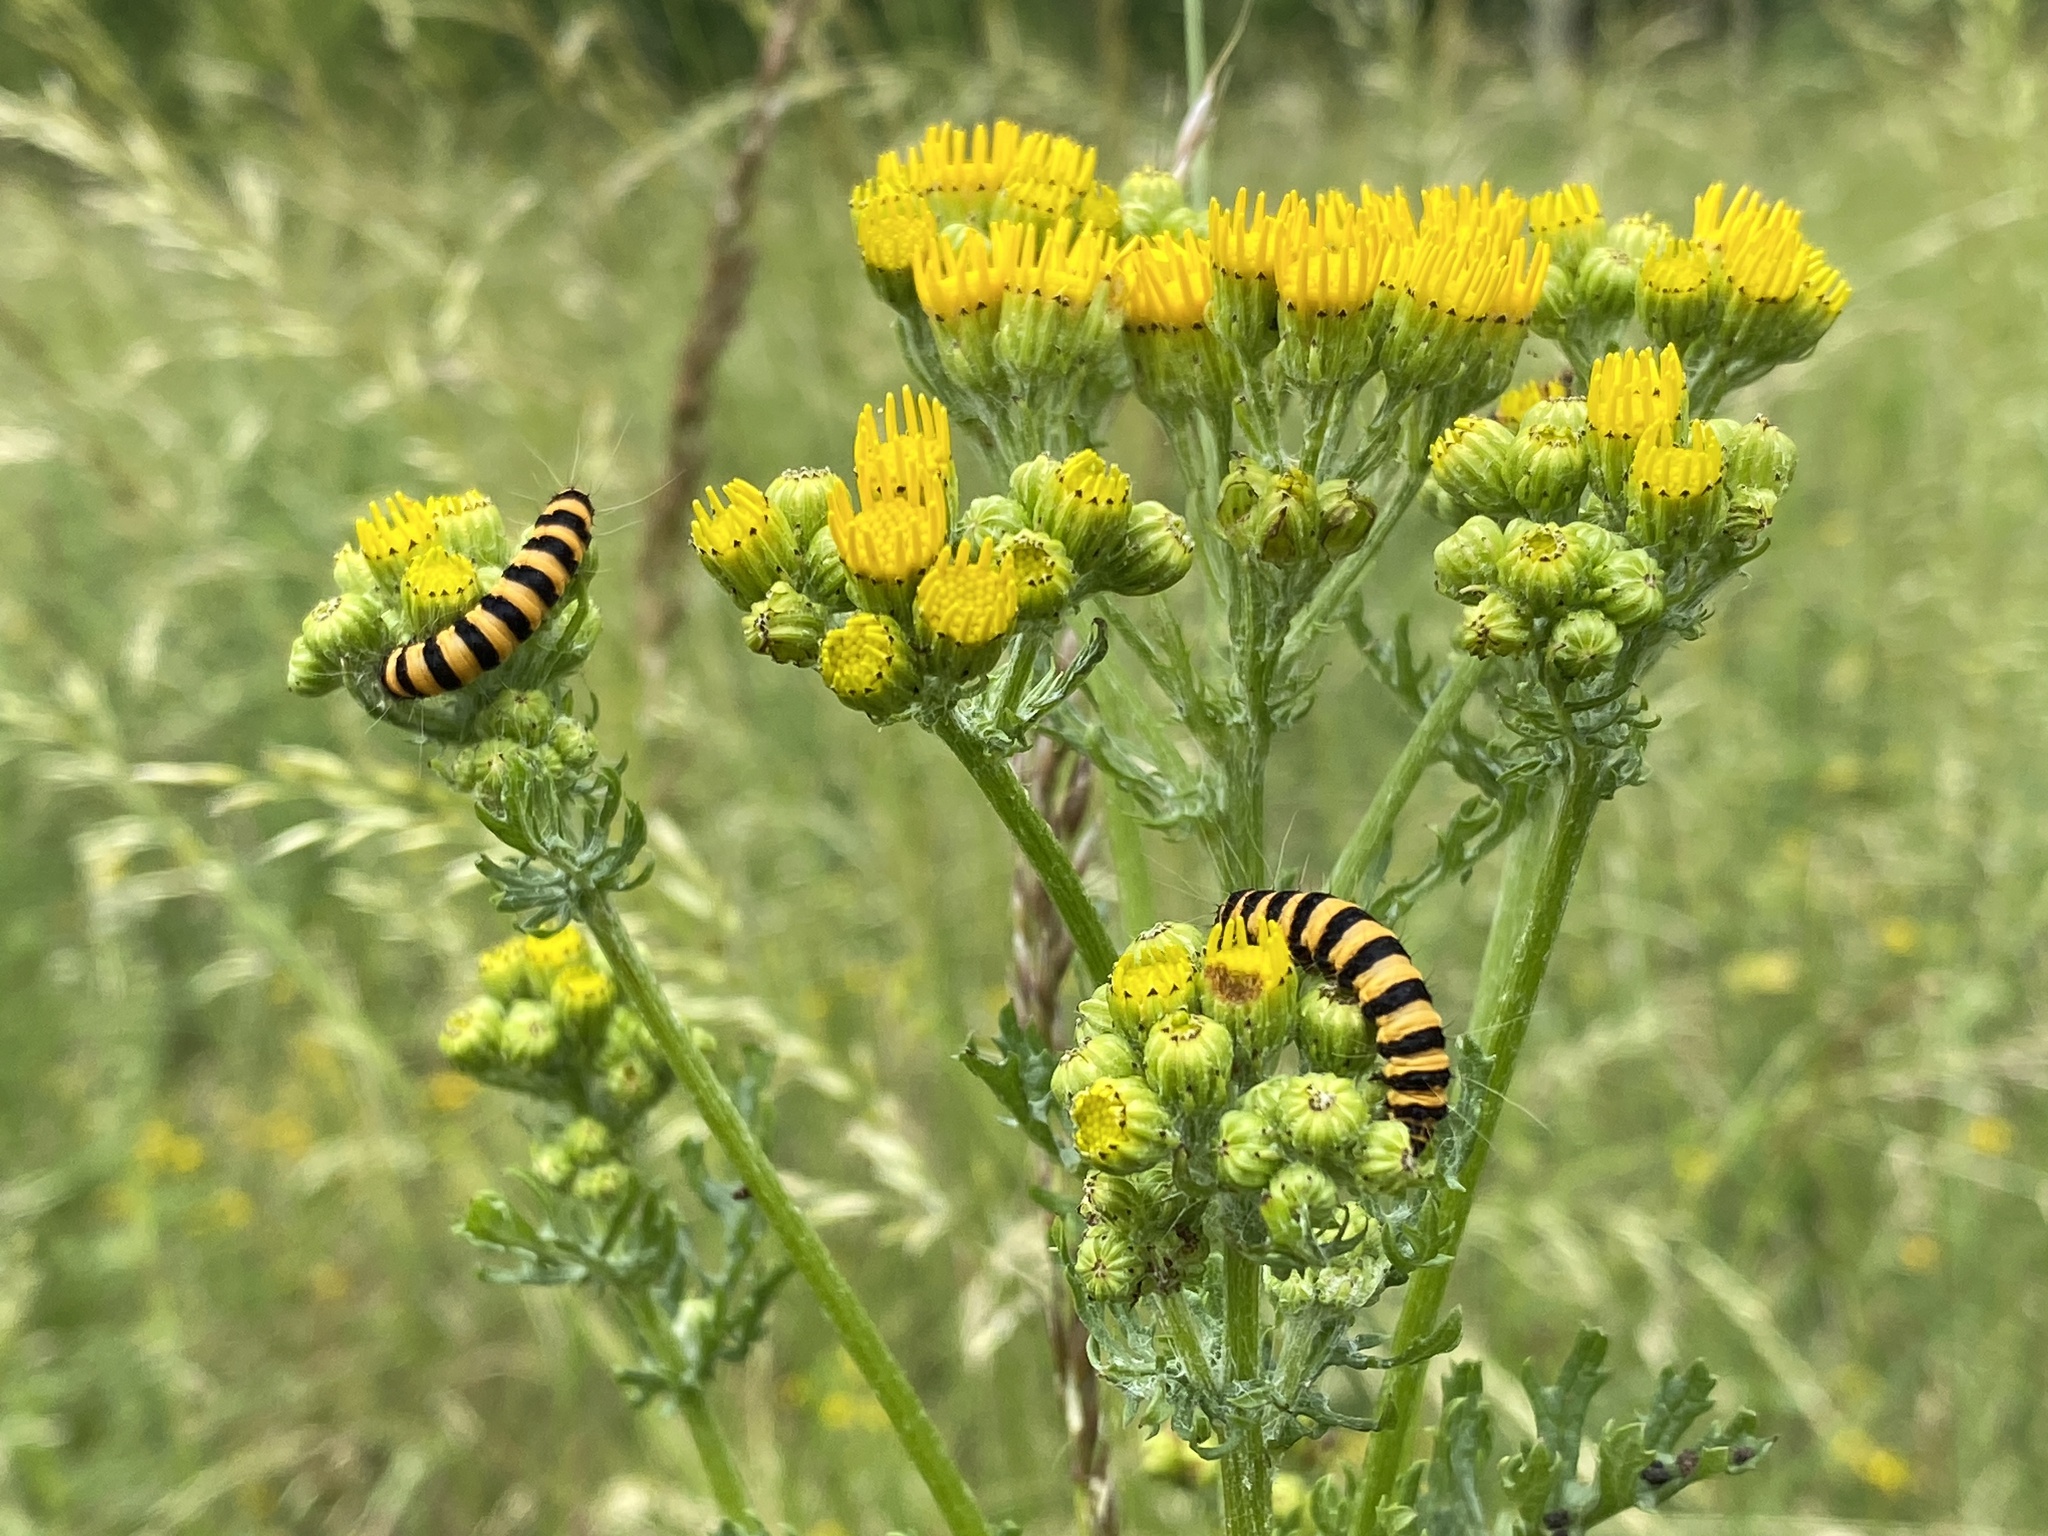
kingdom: Animalia
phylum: Arthropoda
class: Insecta
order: Lepidoptera
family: Erebidae
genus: Tyria
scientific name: Tyria jacobaeae
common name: Cinnabar
